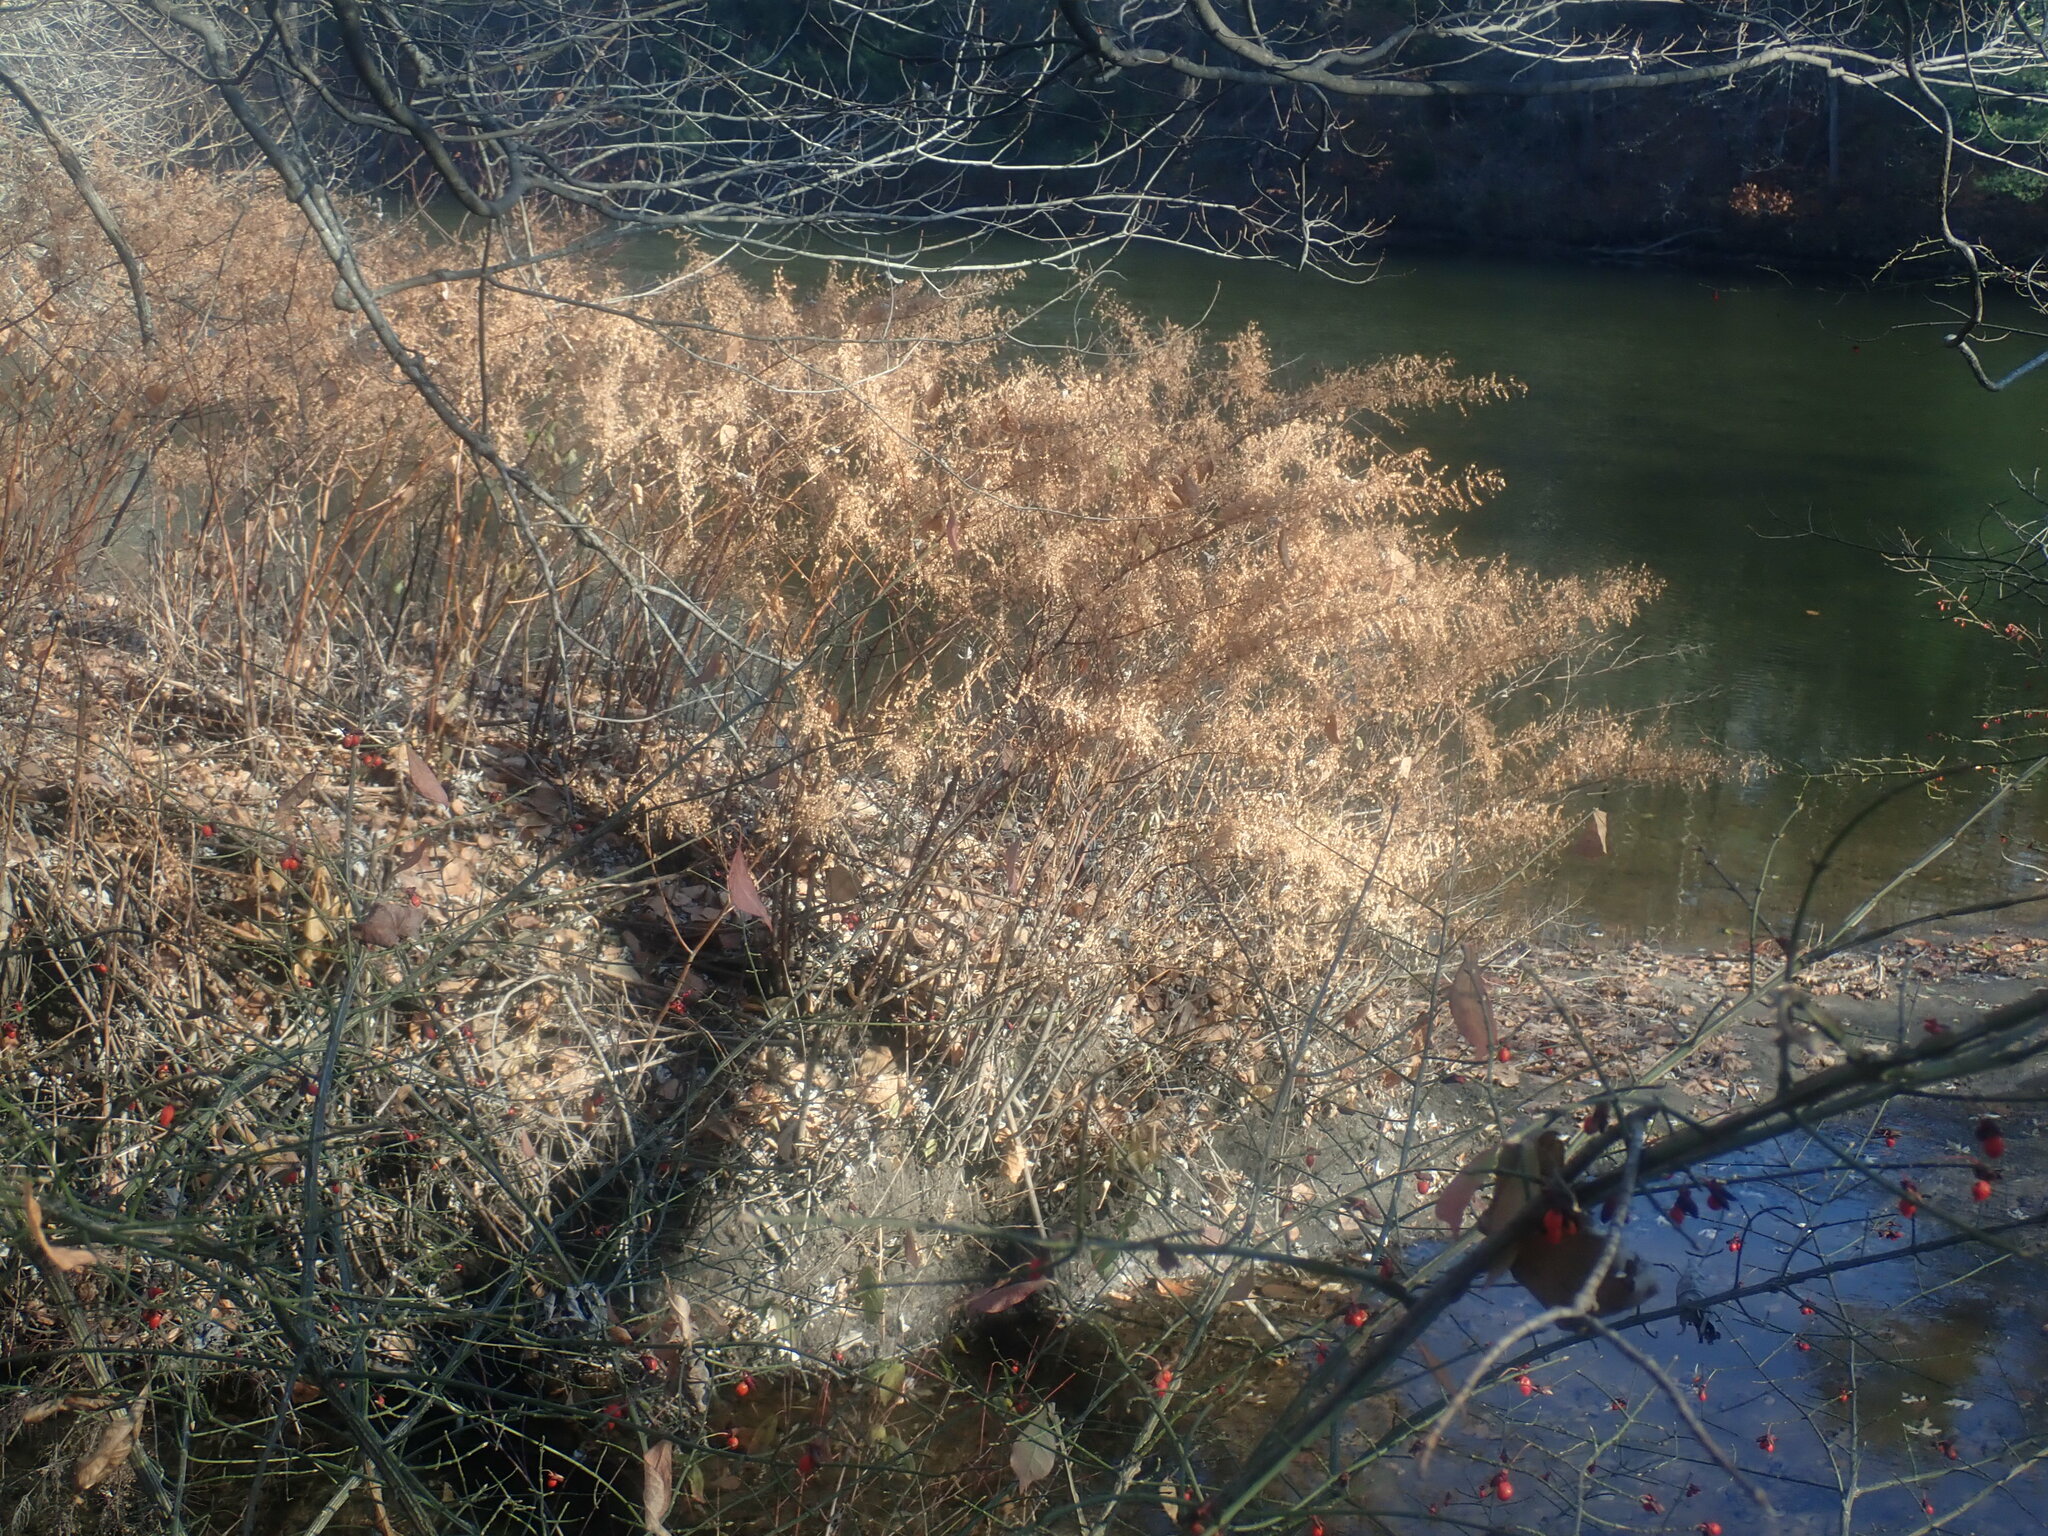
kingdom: Plantae
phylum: Tracheophyta
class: Magnoliopsida
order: Caryophyllales
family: Polygonaceae
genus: Reynoutria
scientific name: Reynoutria
